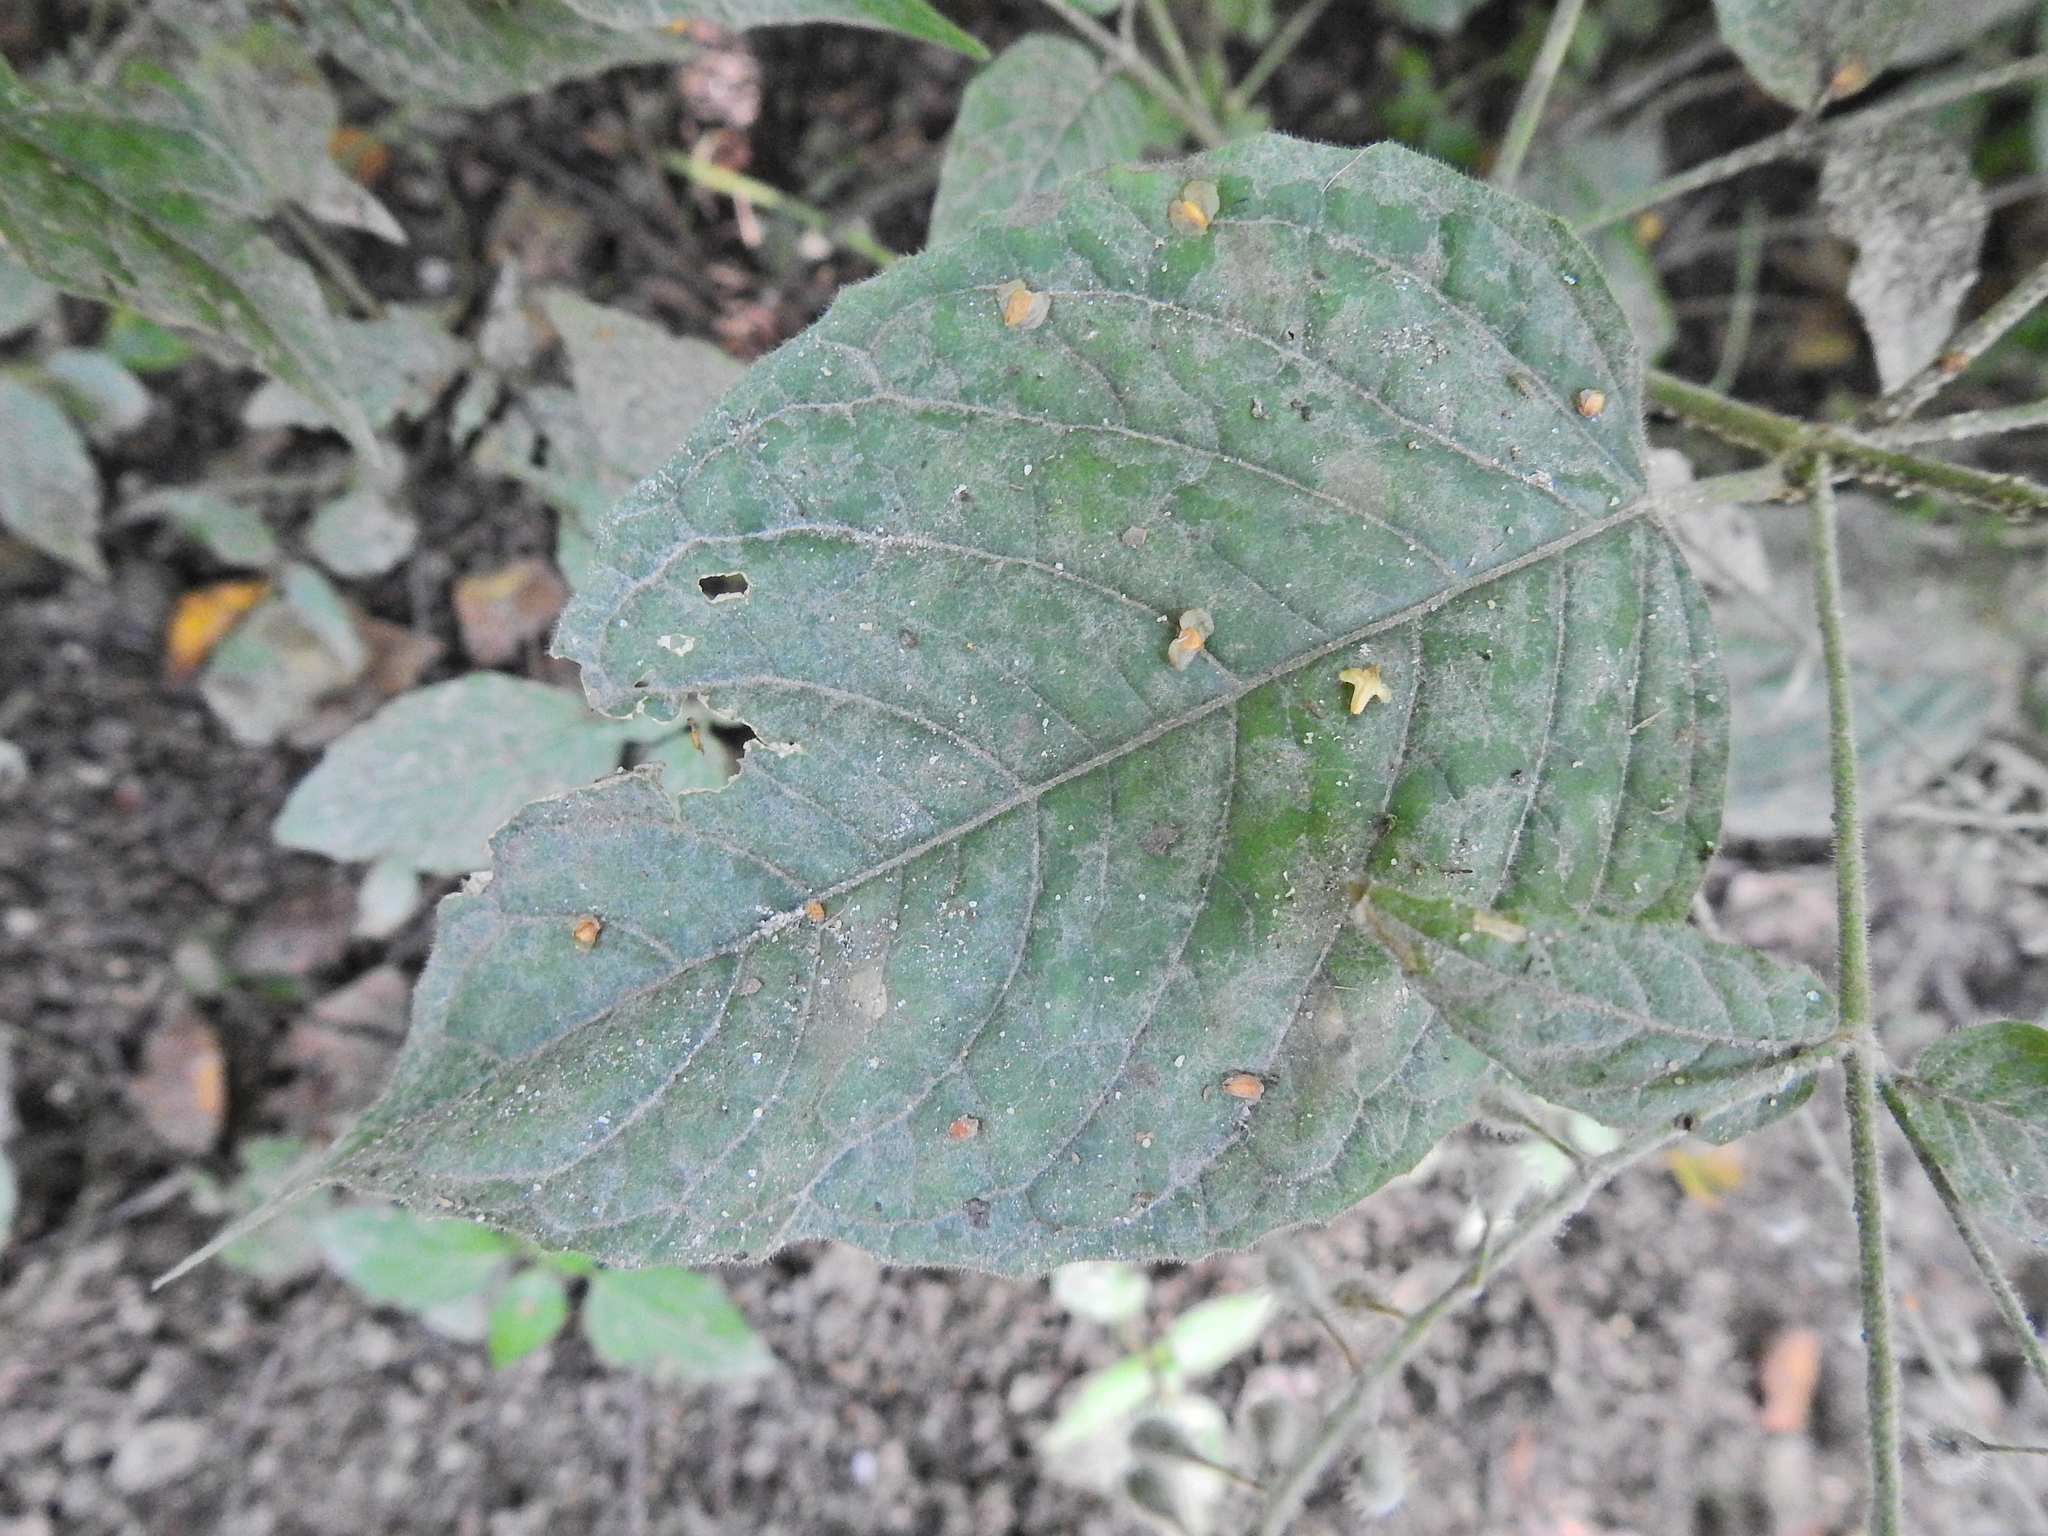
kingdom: Fungi
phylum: Ascomycota
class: Leotiomycetes
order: Helotiales
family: Erysiphaceae
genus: Erysiphe
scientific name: Erysiphe circaeae
